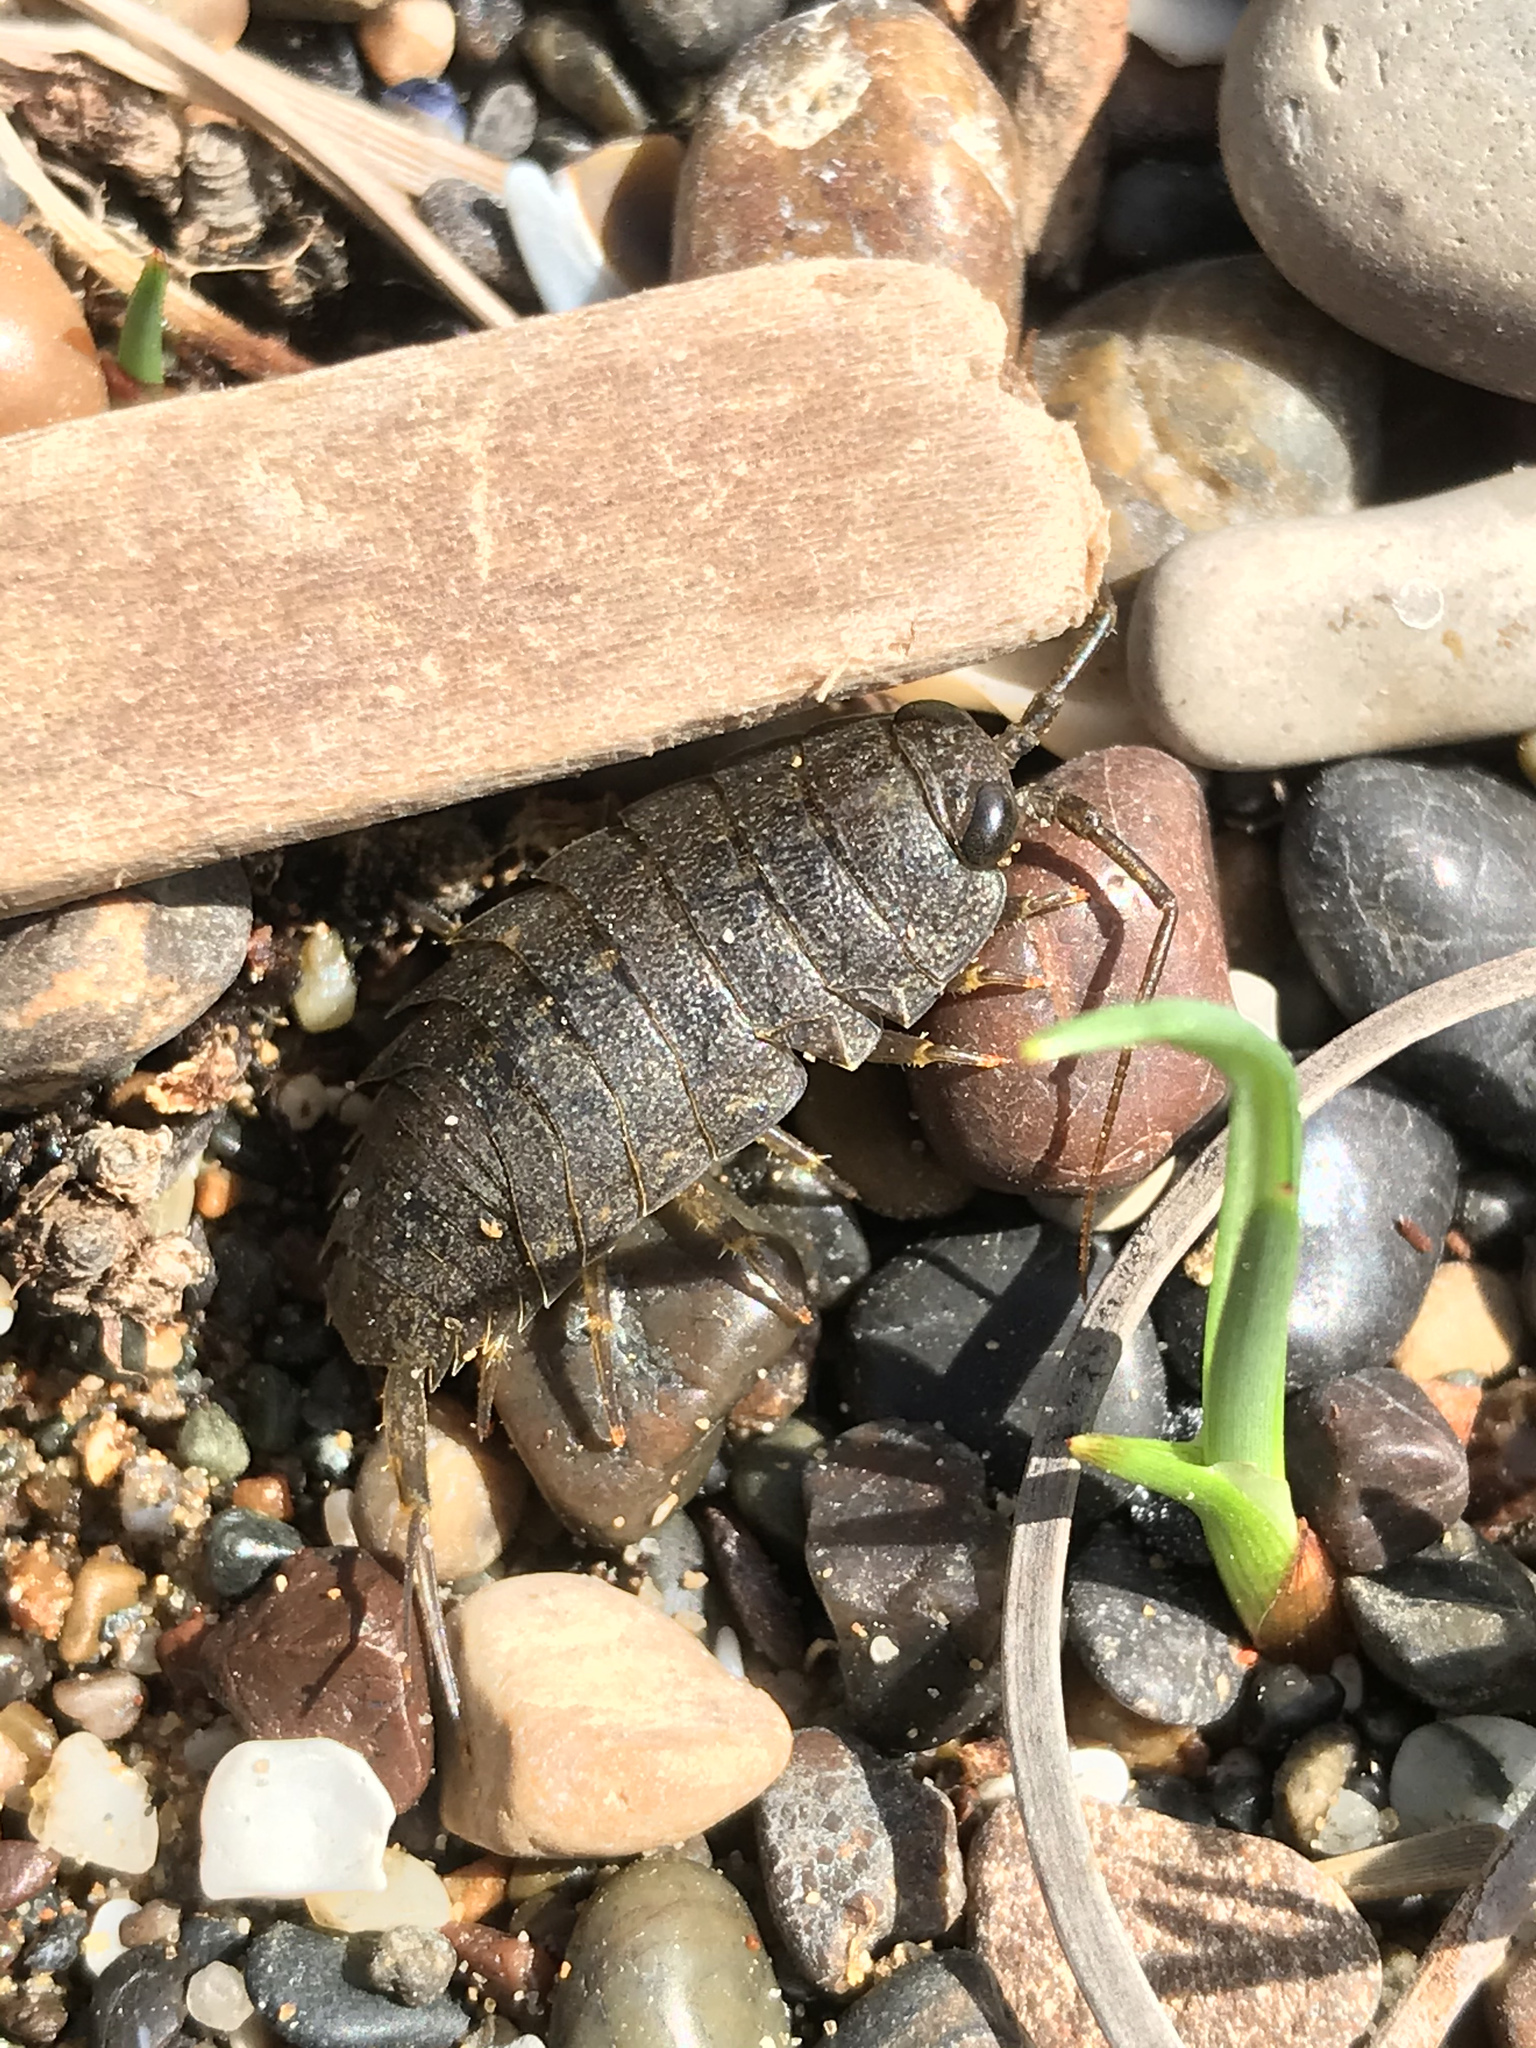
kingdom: Animalia
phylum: Arthropoda
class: Malacostraca
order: Isopoda
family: Ligiidae
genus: Ligia
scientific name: Ligia occidentalis
